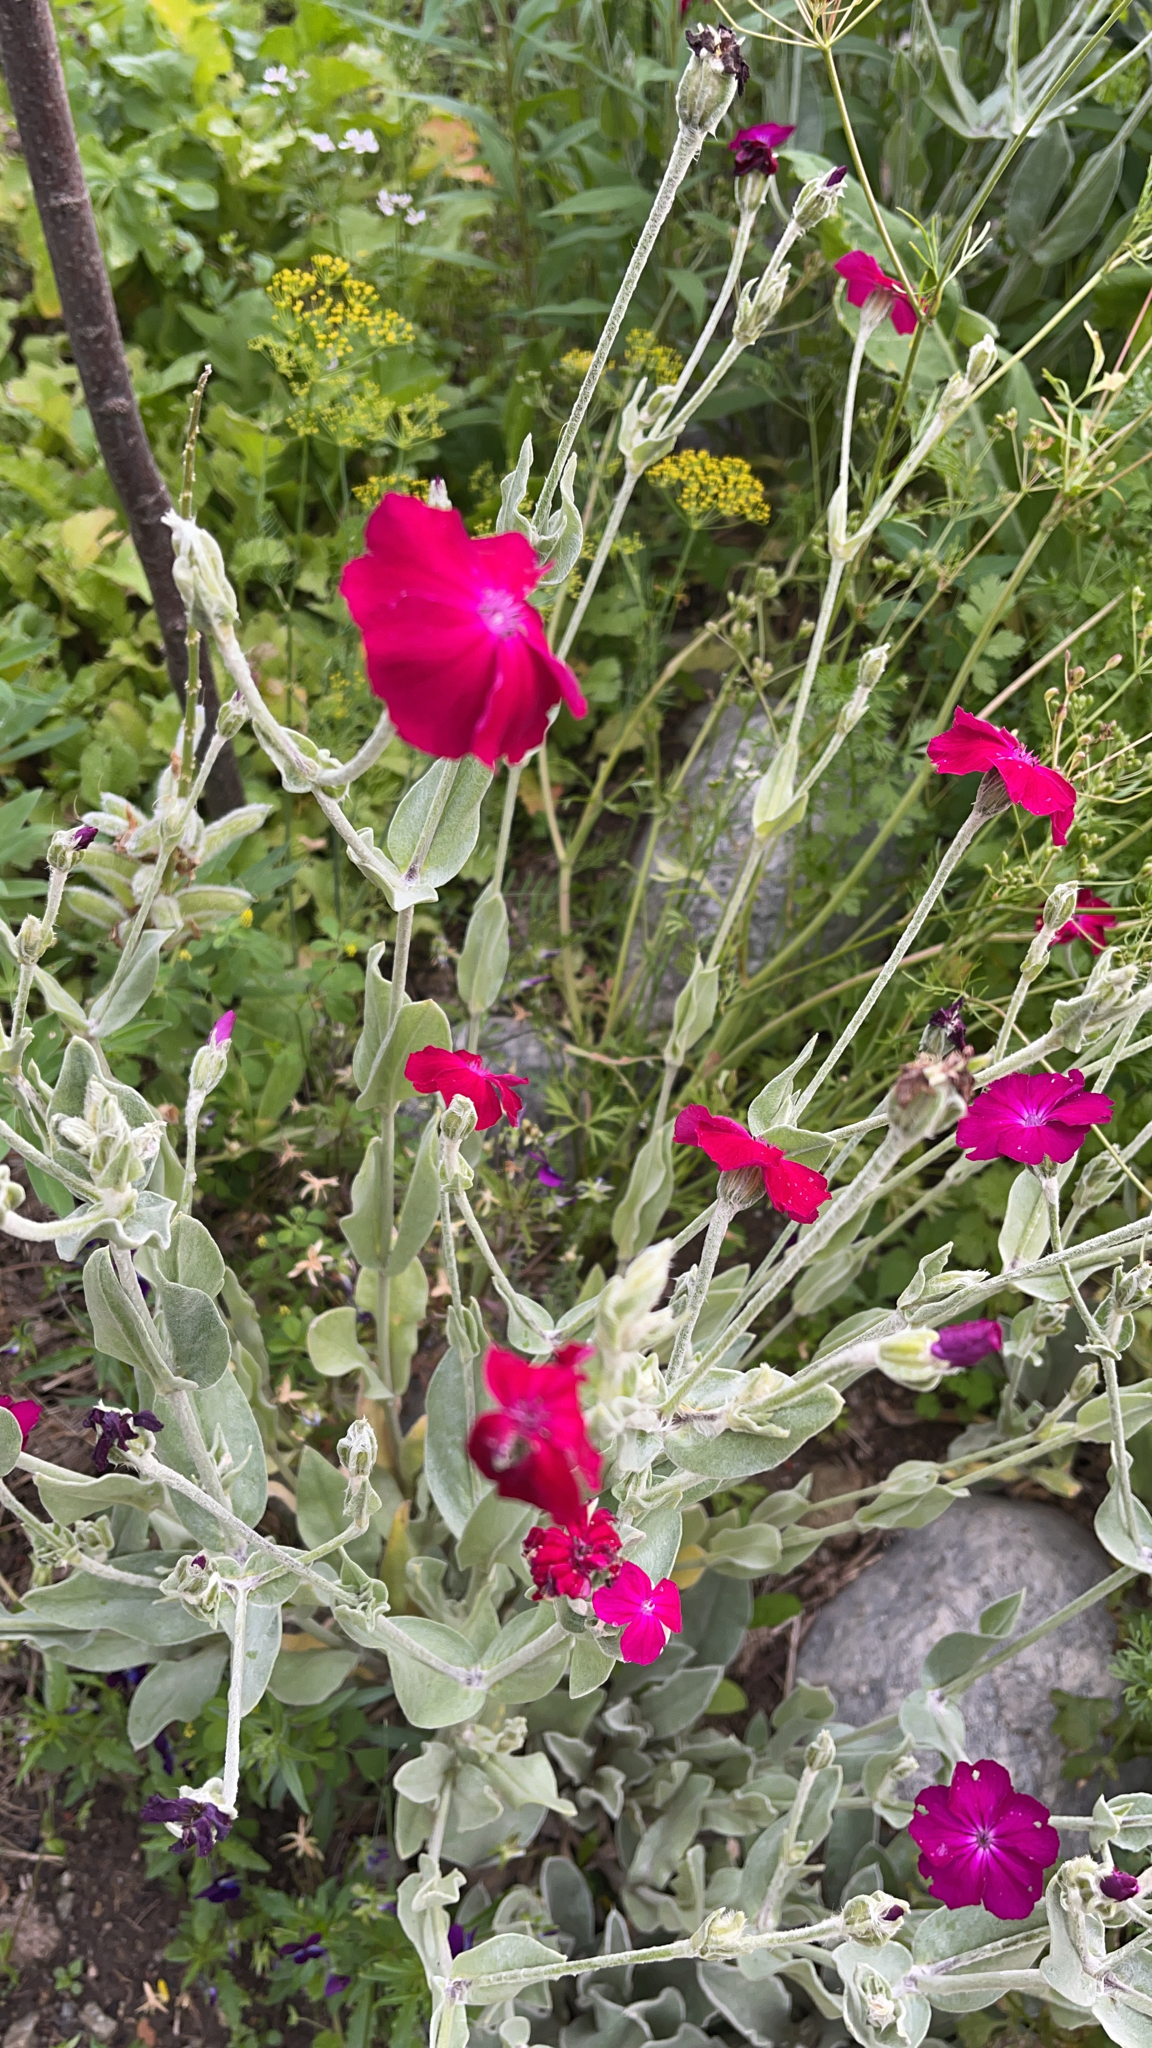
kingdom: Plantae
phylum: Tracheophyta
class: Magnoliopsida
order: Caryophyllales
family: Caryophyllaceae
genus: Silene
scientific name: Silene coronaria
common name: Rose campion
